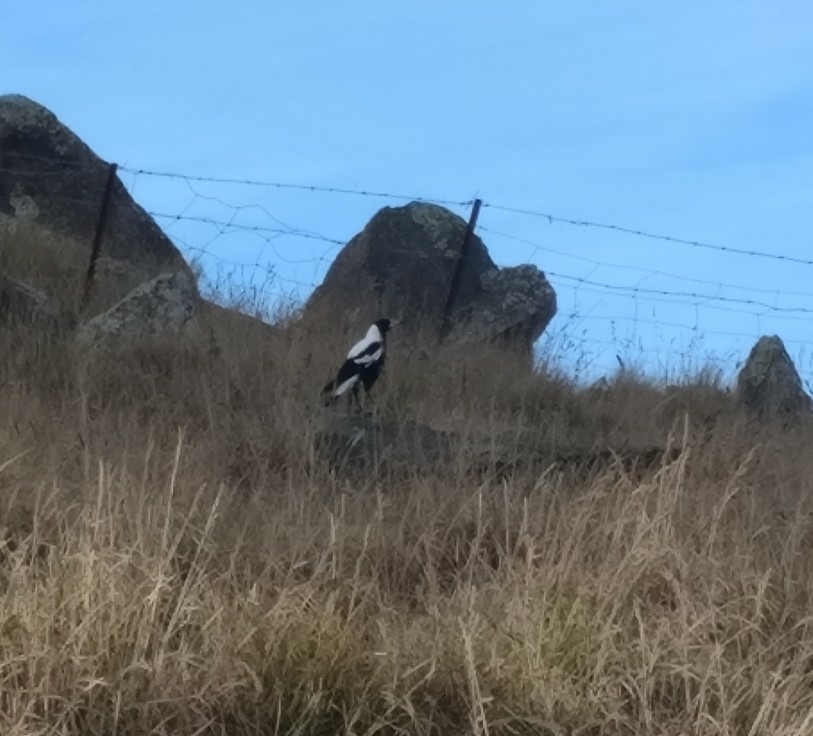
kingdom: Animalia
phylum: Chordata
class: Aves
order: Passeriformes
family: Cracticidae
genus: Gymnorhina
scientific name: Gymnorhina tibicen
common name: Australian magpie
